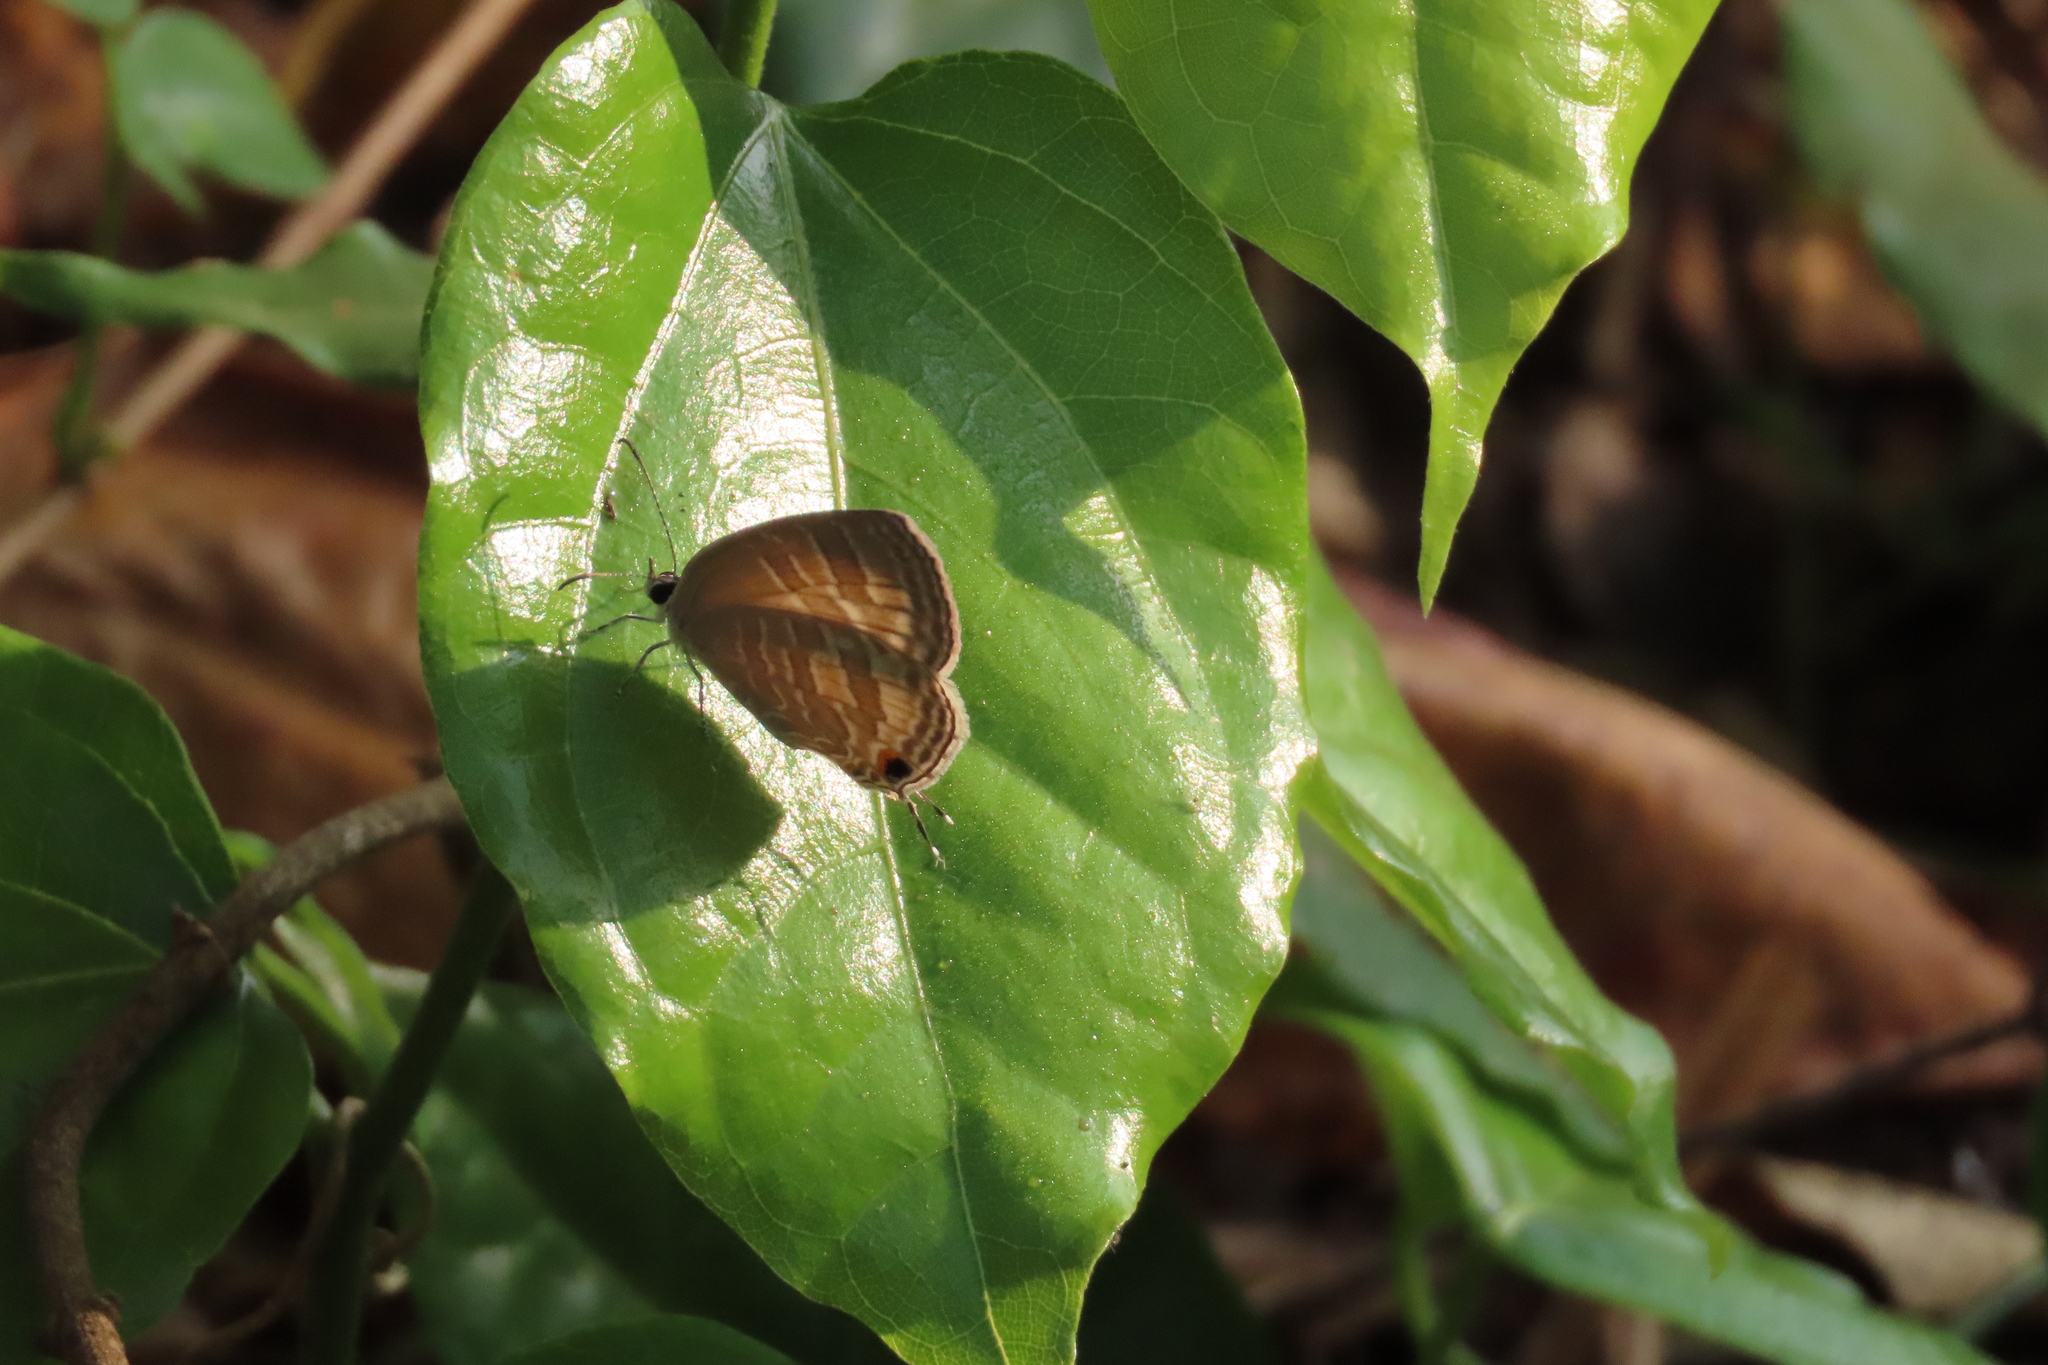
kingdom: Animalia
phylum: Arthropoda
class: Insecta
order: Lepidoptera
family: Lycaenidae
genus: Jamides
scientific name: Jamides celeno
